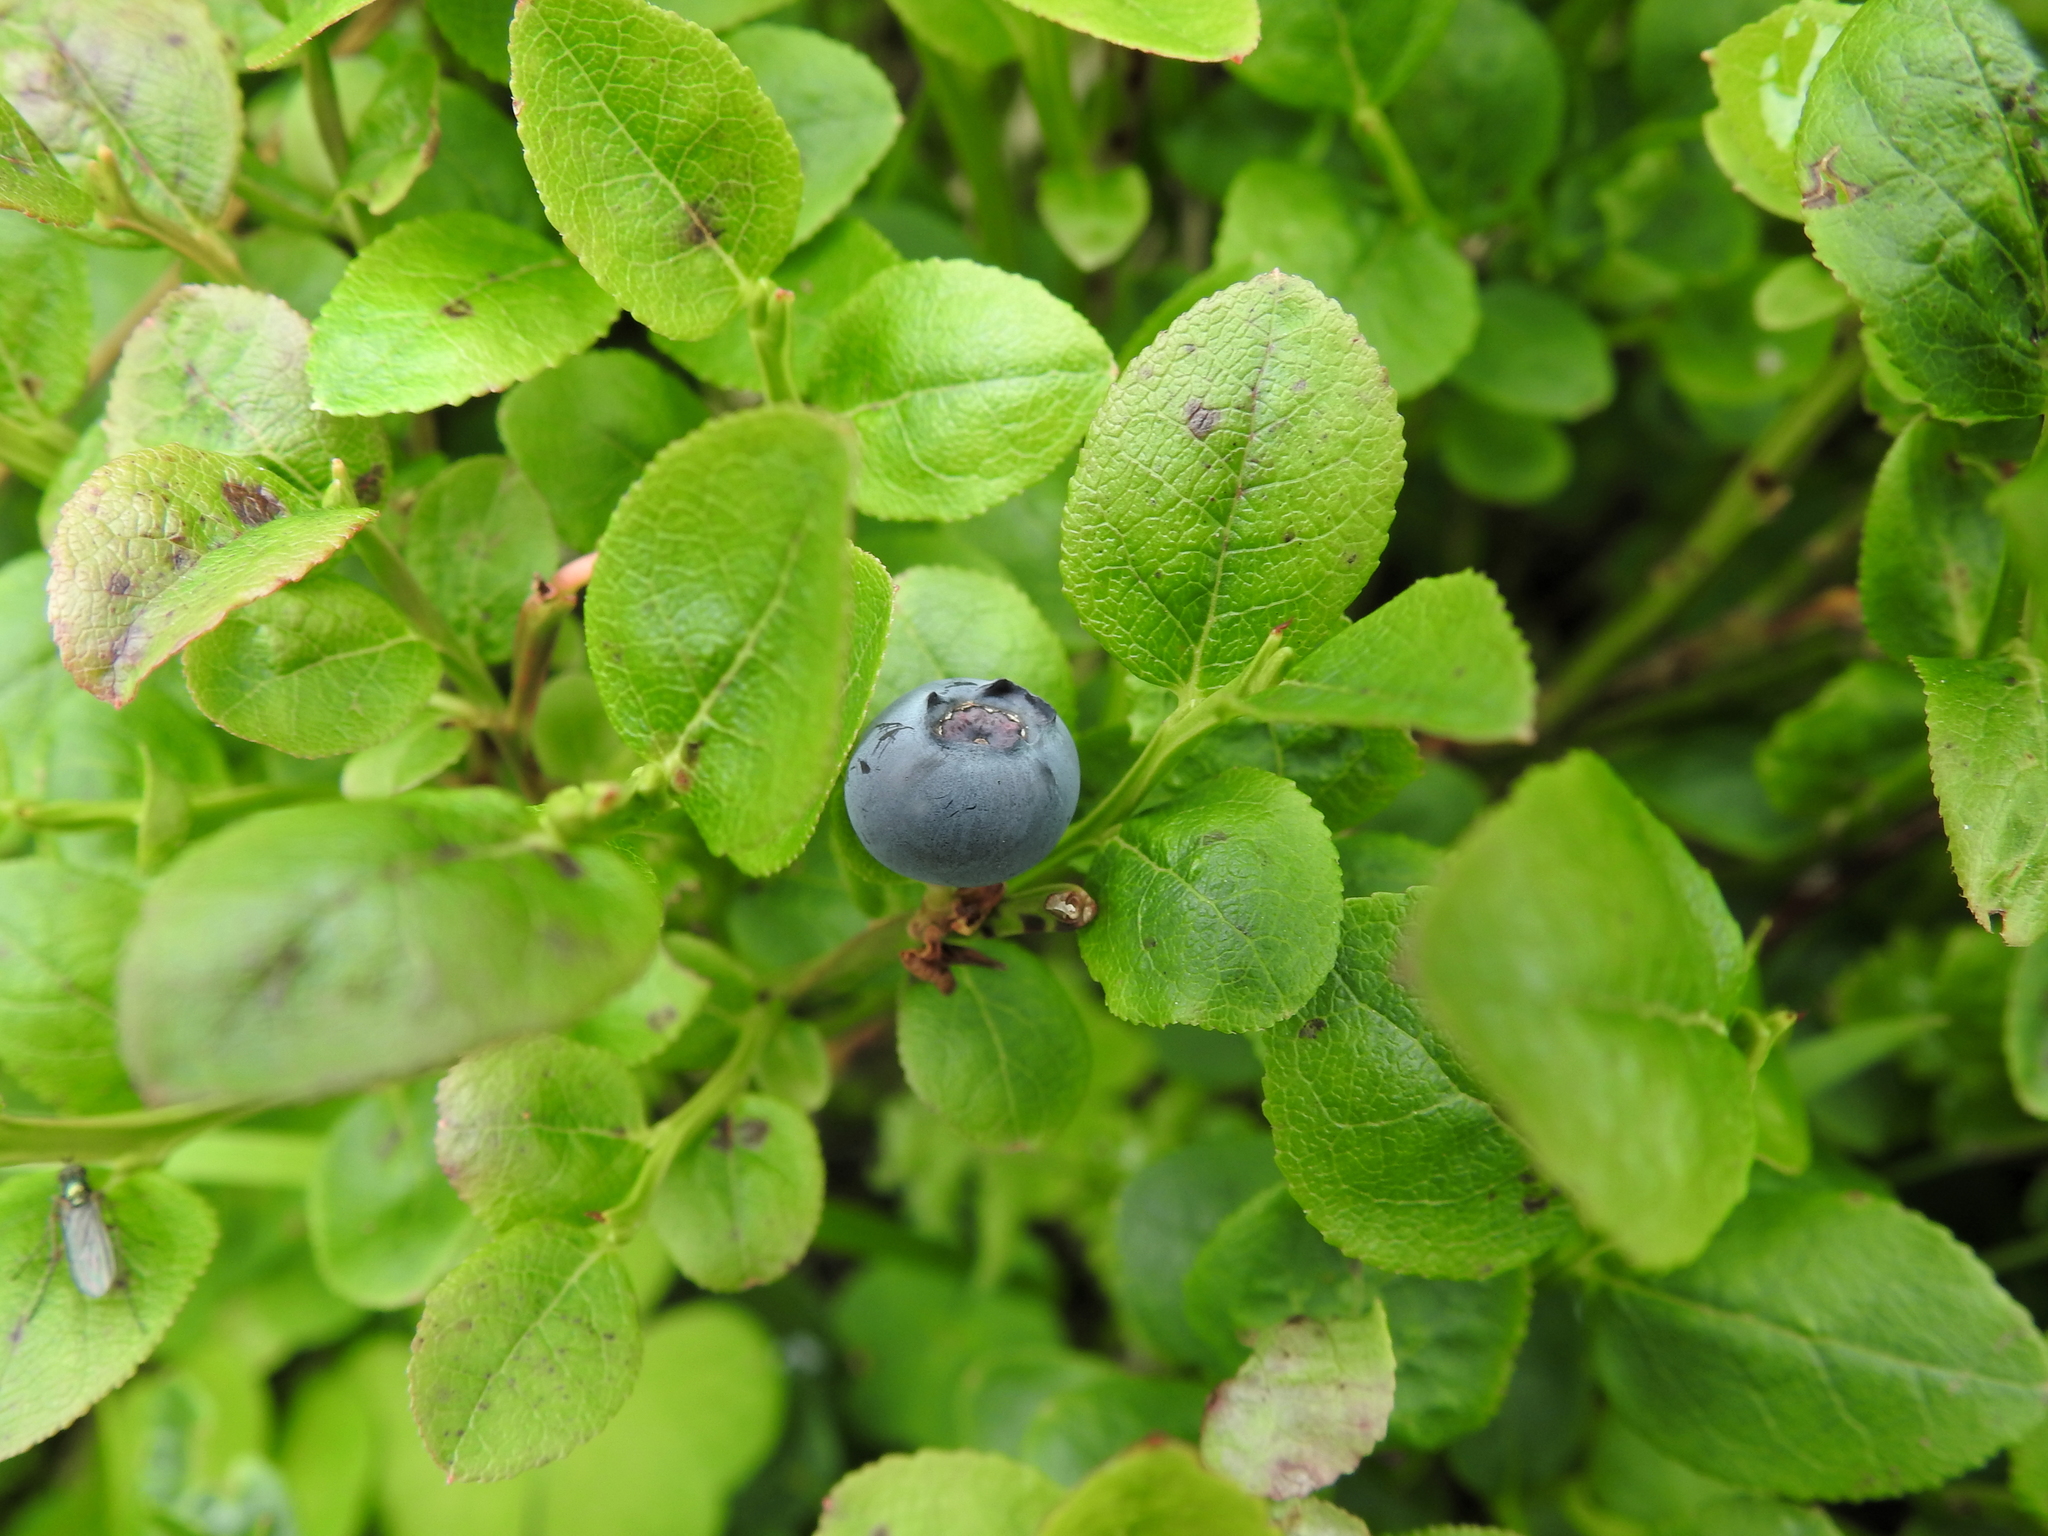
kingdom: Plantae
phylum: Tracheophyta
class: Magnoliopsida
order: Ericales
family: Ericaceae
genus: Vaccinium
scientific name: Vaccinium myrtillus
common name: Bilberry
